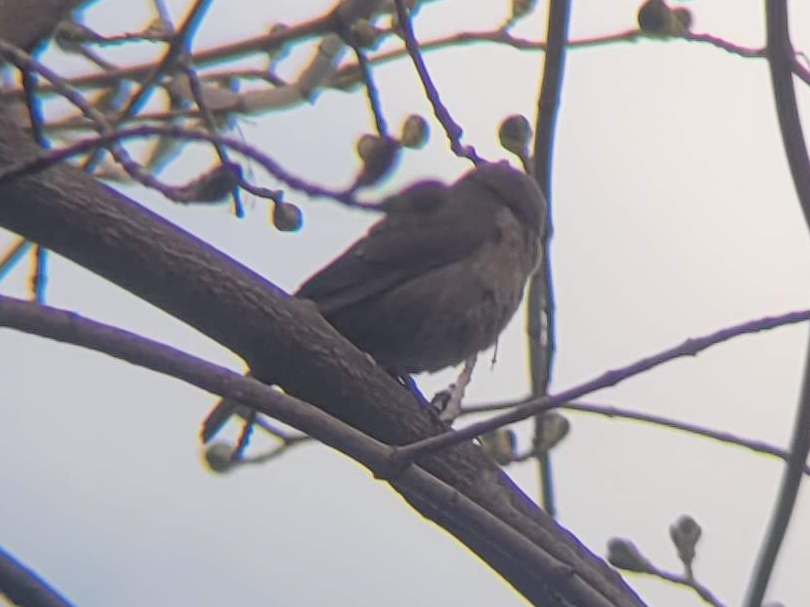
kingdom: Animalia
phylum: Chordata
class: Aves
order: Passeriformes
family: Icteridae
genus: Molothrus
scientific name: Molothrus ater
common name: Brown-headed cowbird
